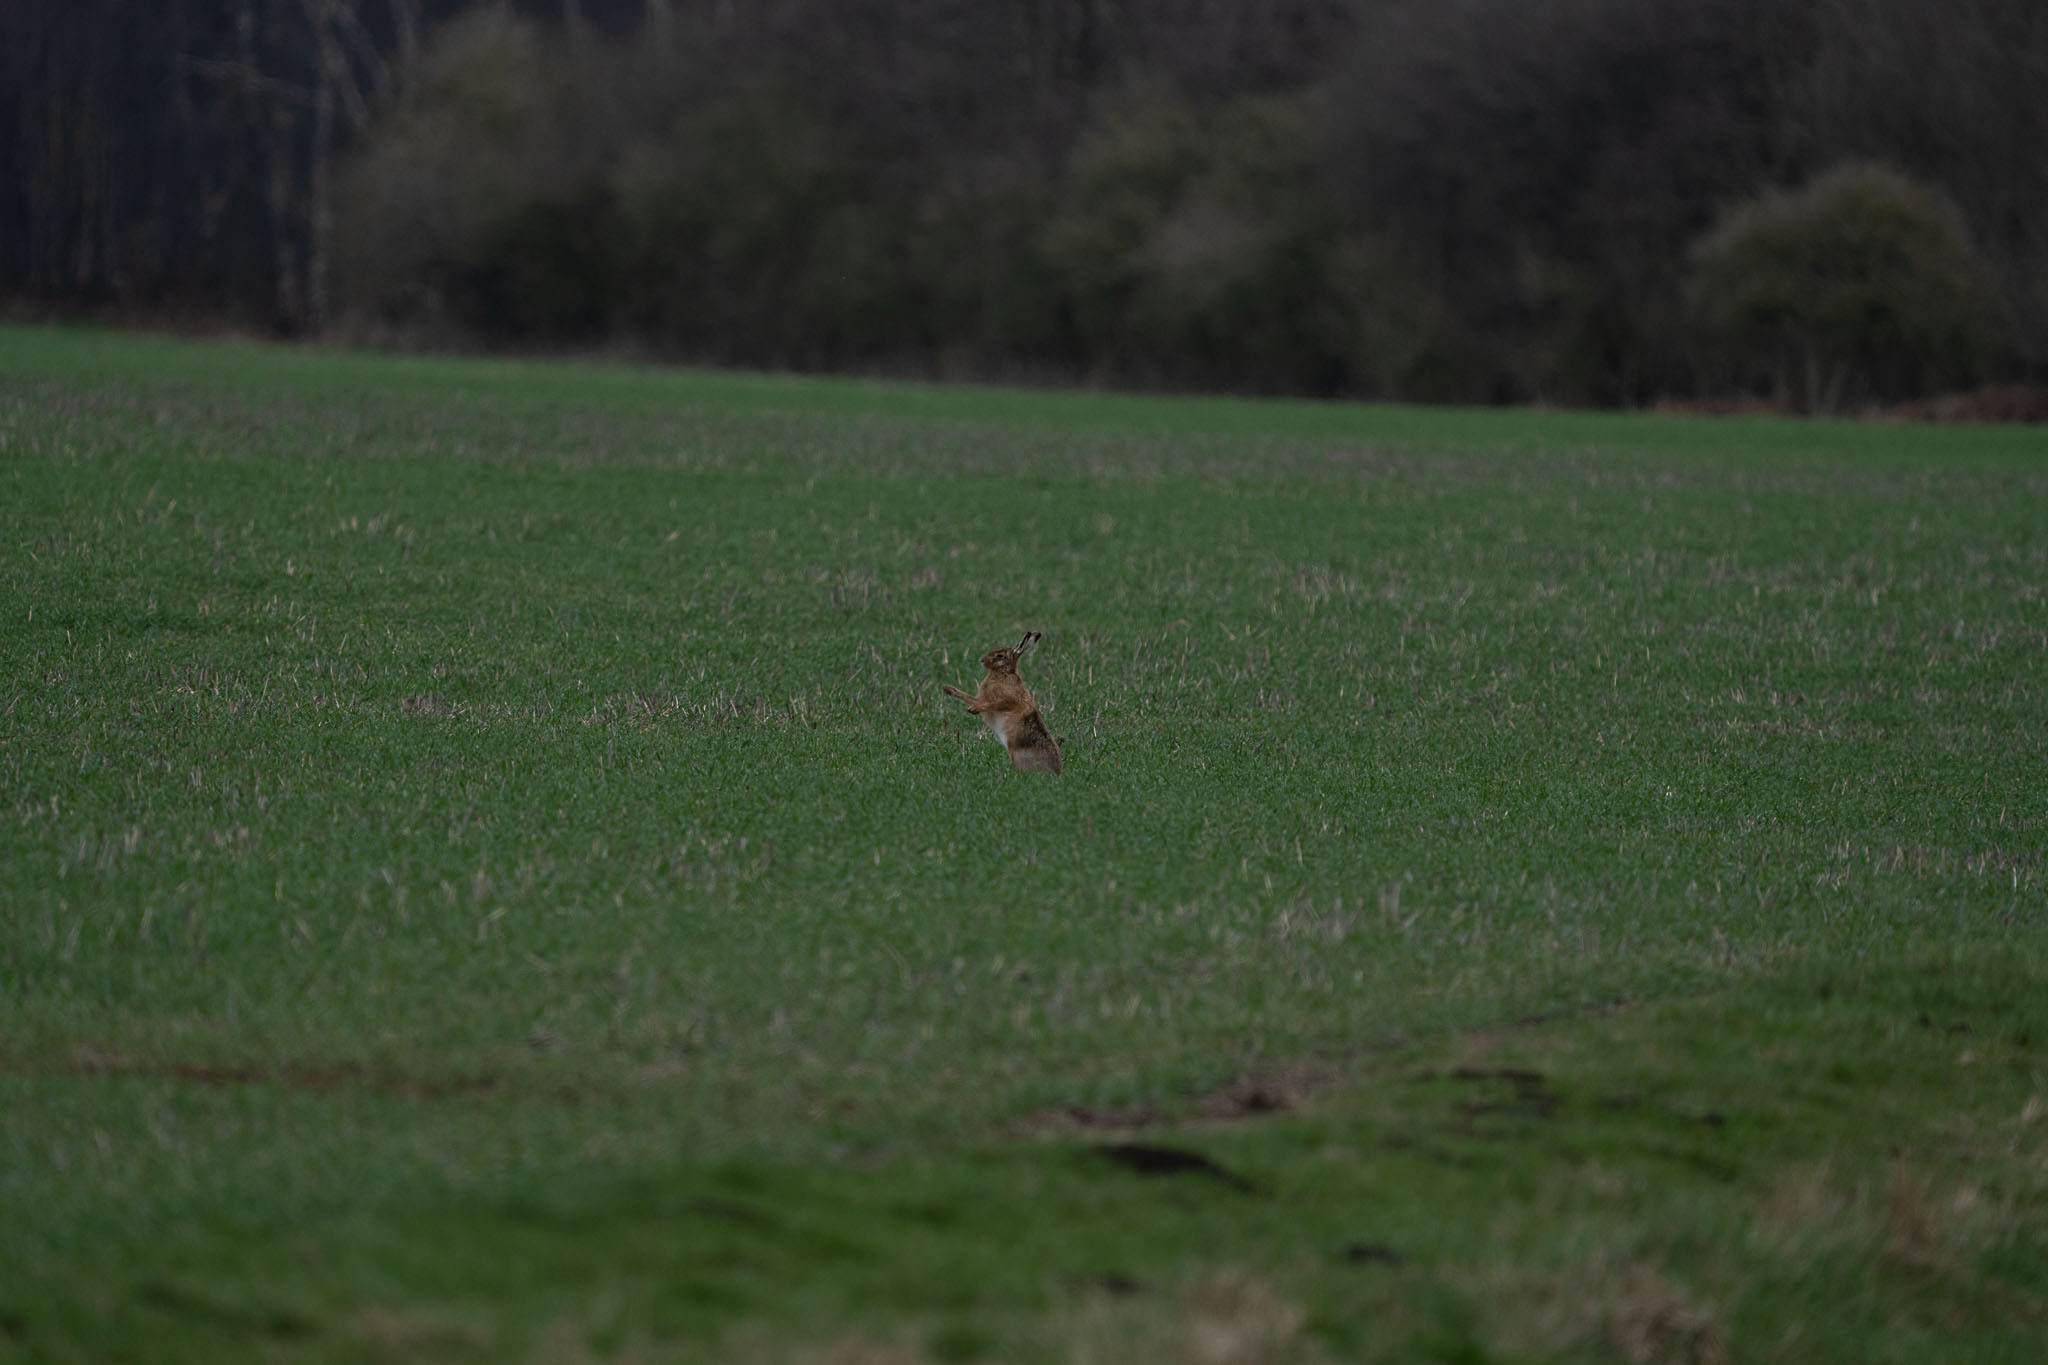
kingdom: Animalia
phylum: Chordata
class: Mammalia
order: Lagomorpha
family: Leporidae
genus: Lepus
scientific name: Lepus europaeus
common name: European hare
